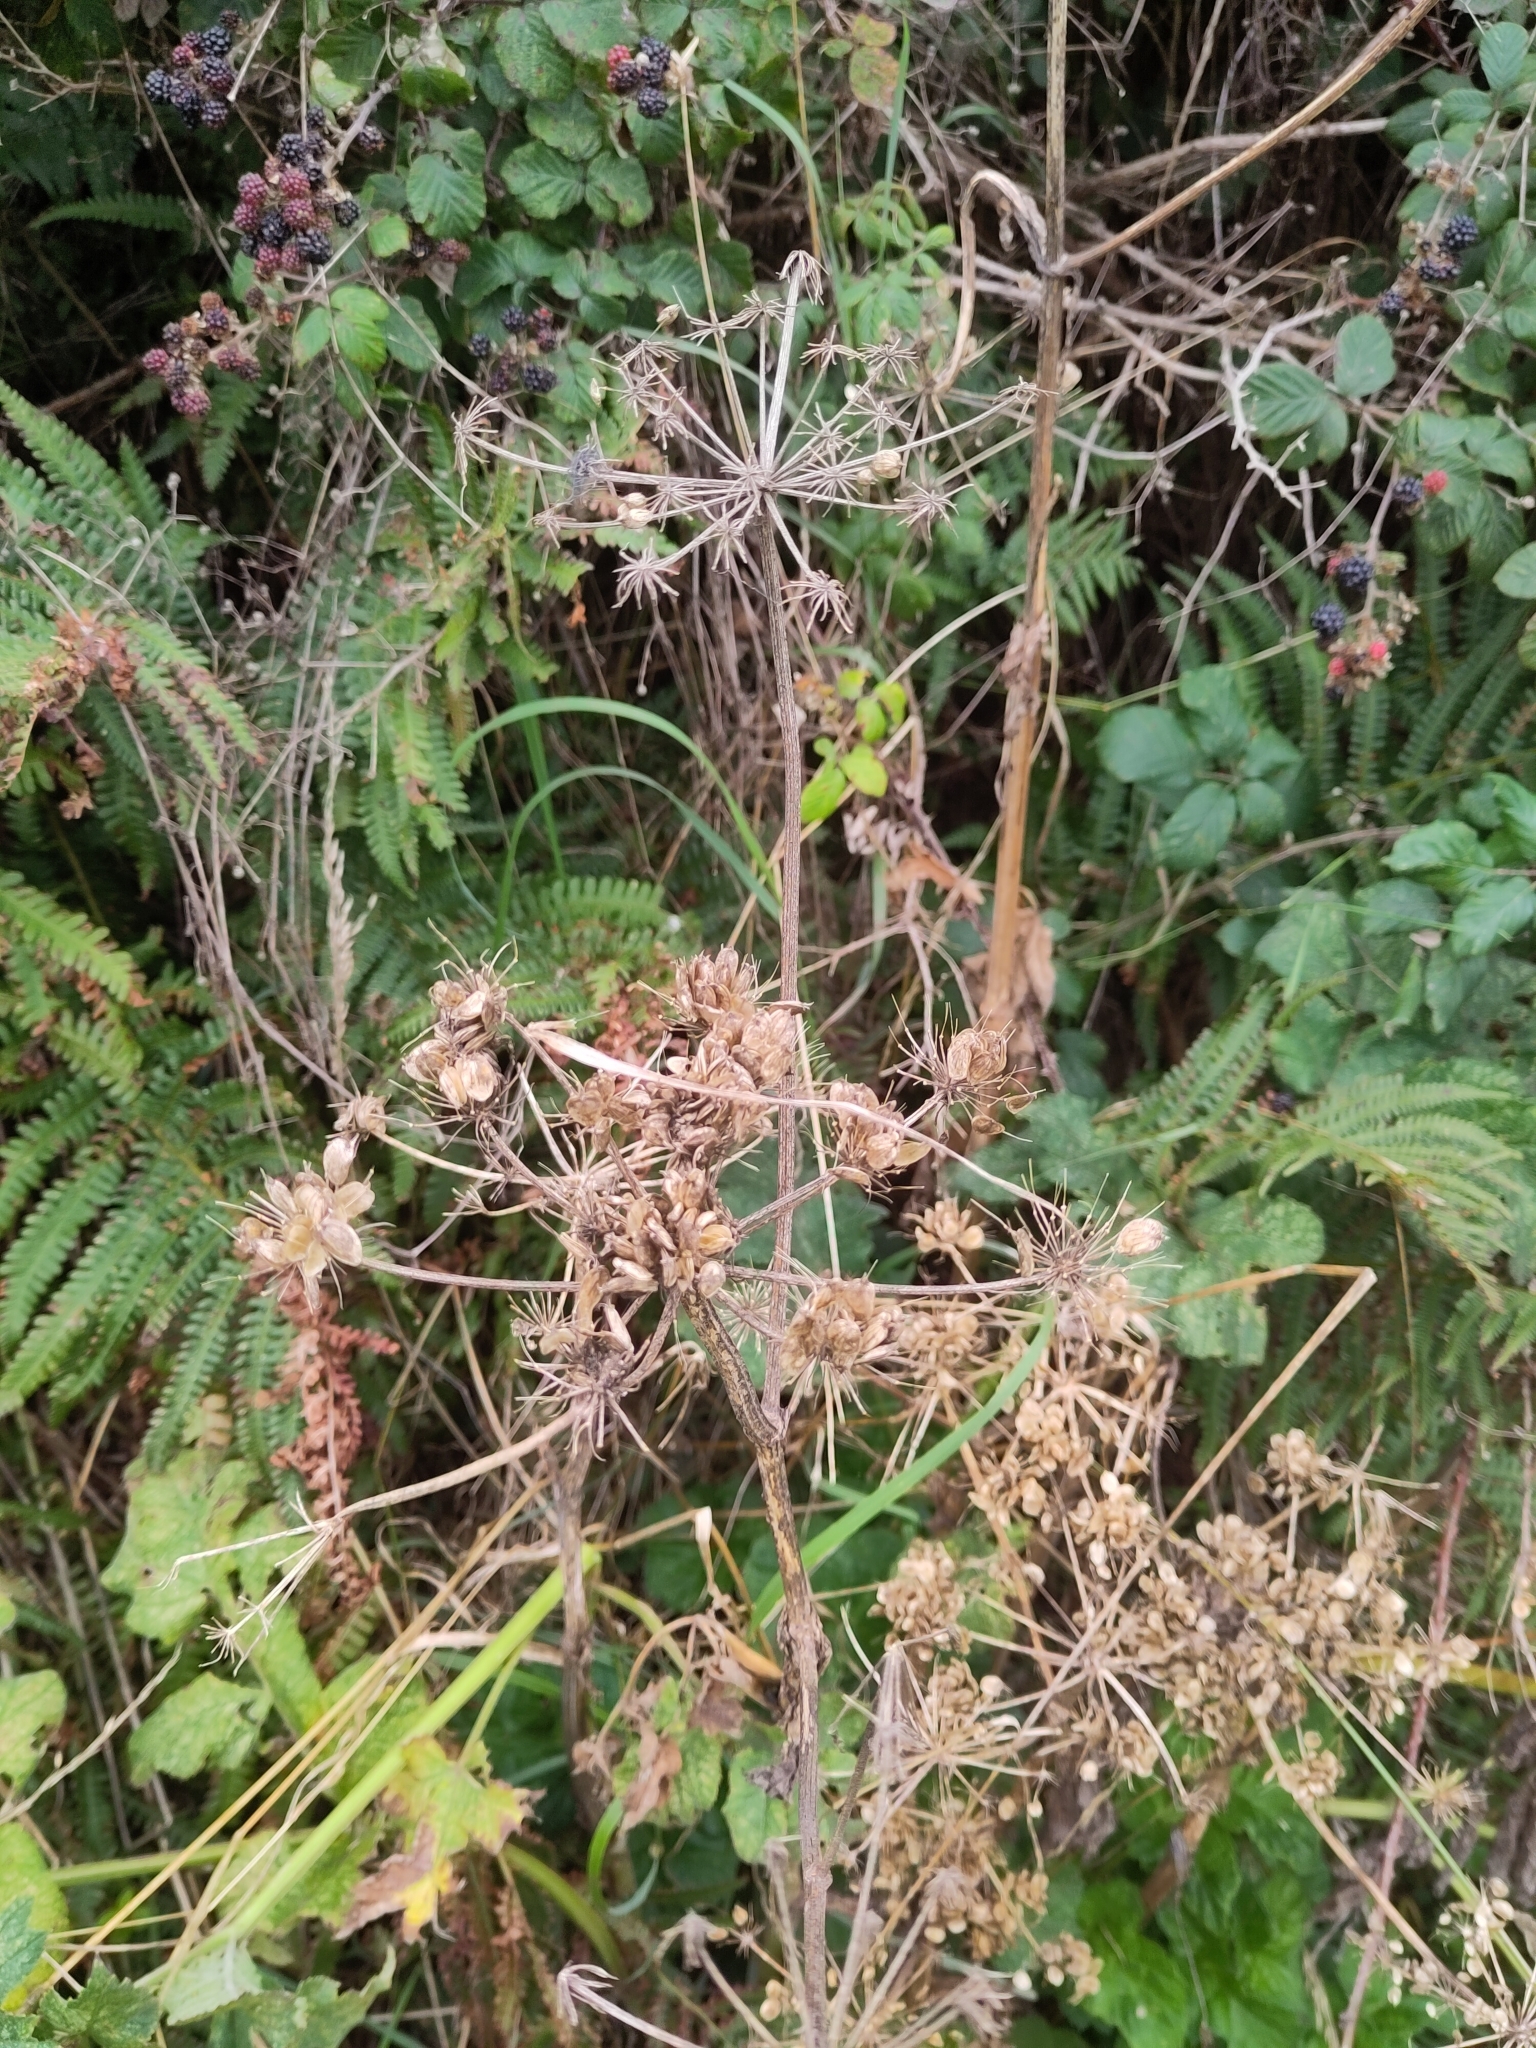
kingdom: Plantae
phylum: Tracheophyta
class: Magnoliopsida
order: Apiales
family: Apiaceae
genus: Heracleum
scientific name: Heracleum sphondylium
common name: Hogweed
